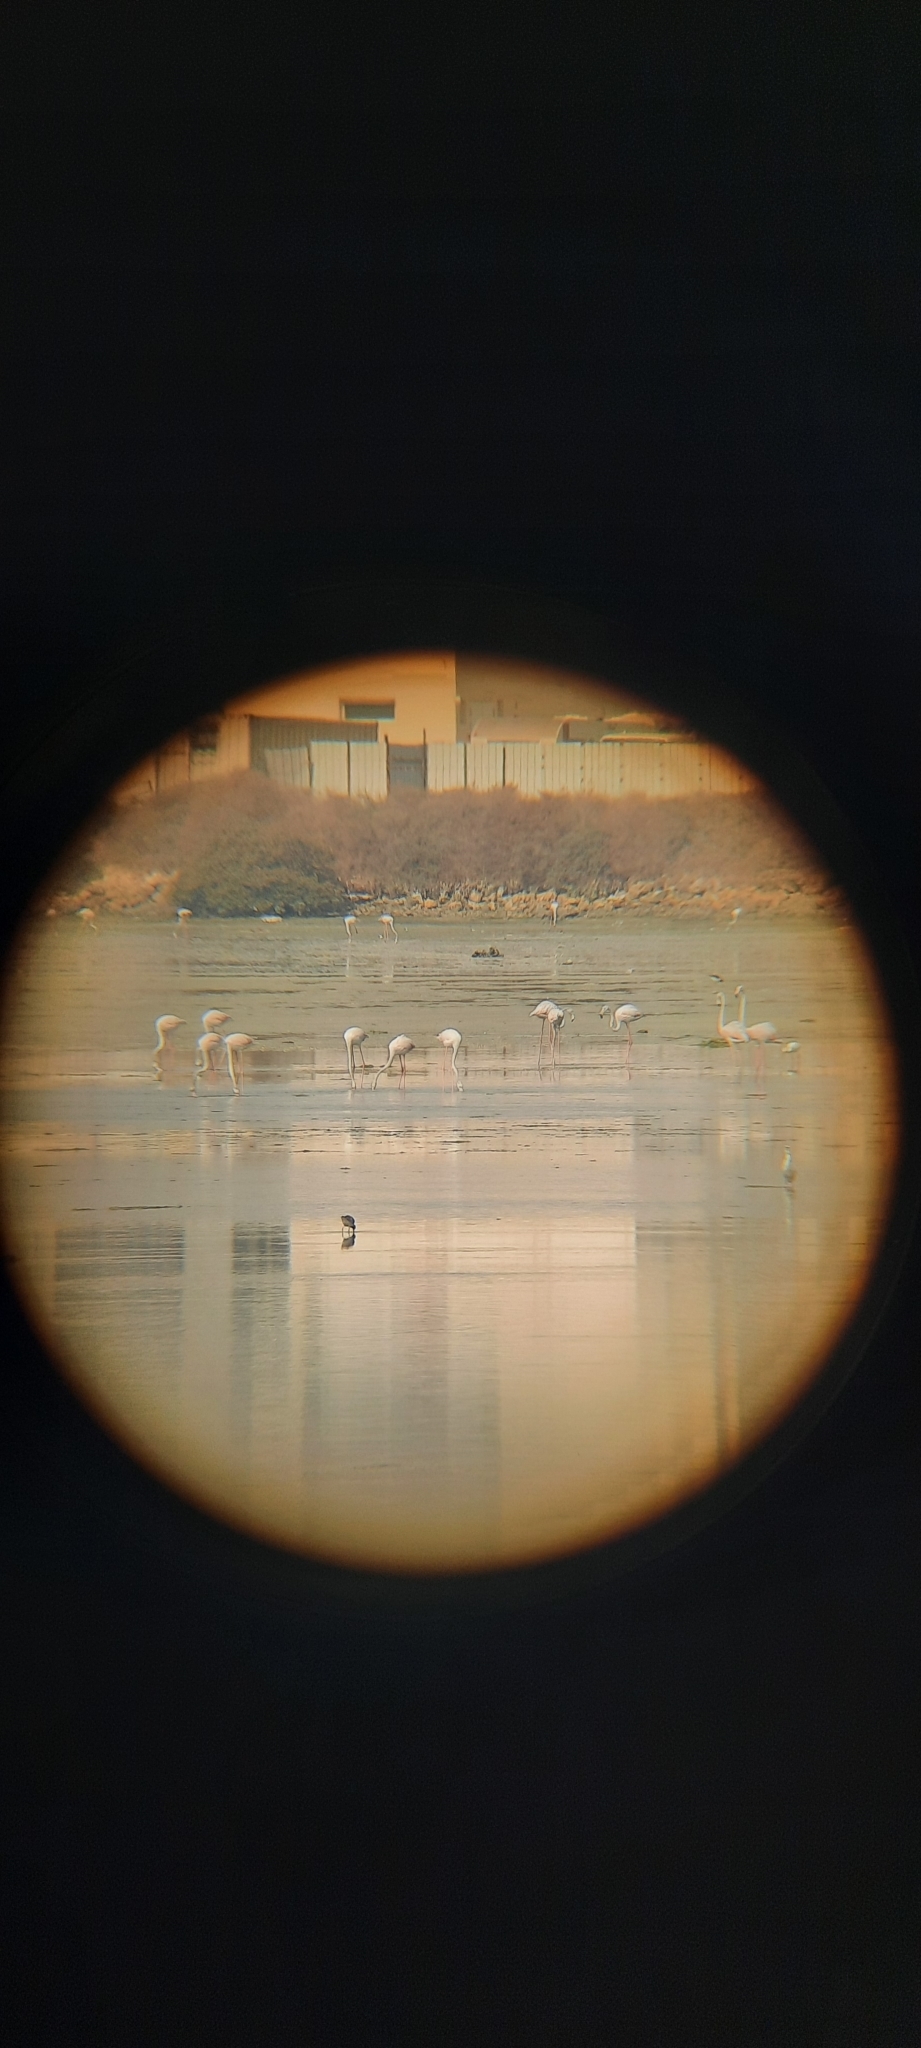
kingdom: Animalia
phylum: Chordata
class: Aves
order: Phoenicopteriformes
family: Phoenicopteridae
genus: Phoenicopterus
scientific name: Phoenicopterus roseus
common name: Greater flamingo
